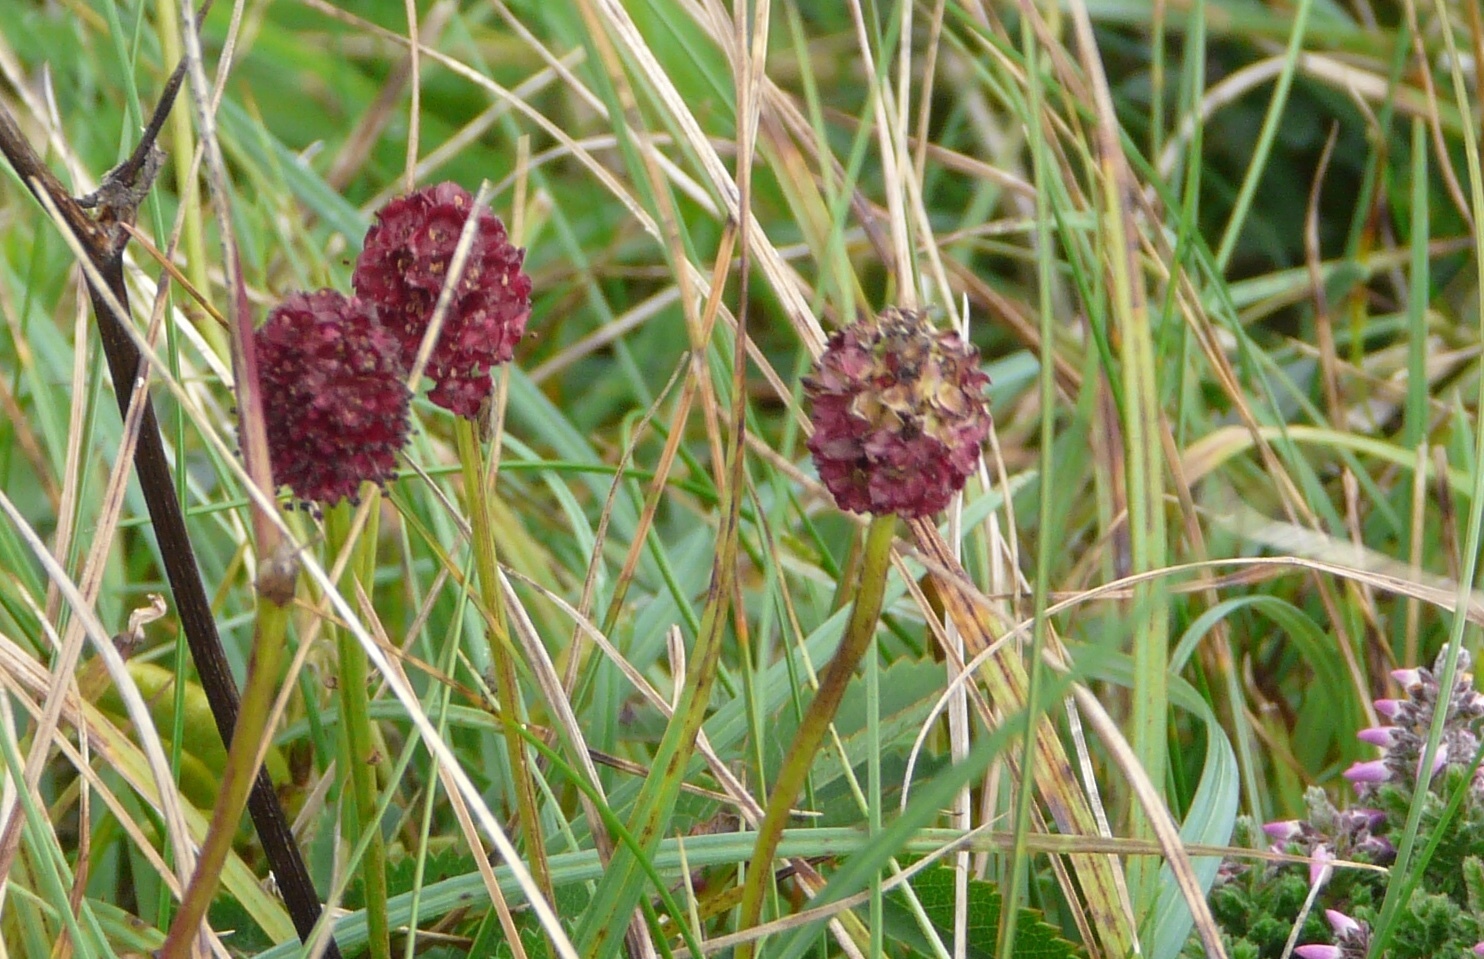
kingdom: Plantae
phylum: Tracheophyta
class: Magnoliopsida
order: Rosales
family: Rosaceae
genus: Sanguisorba
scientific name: Sanguisorba officinalis
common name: Great burnet
